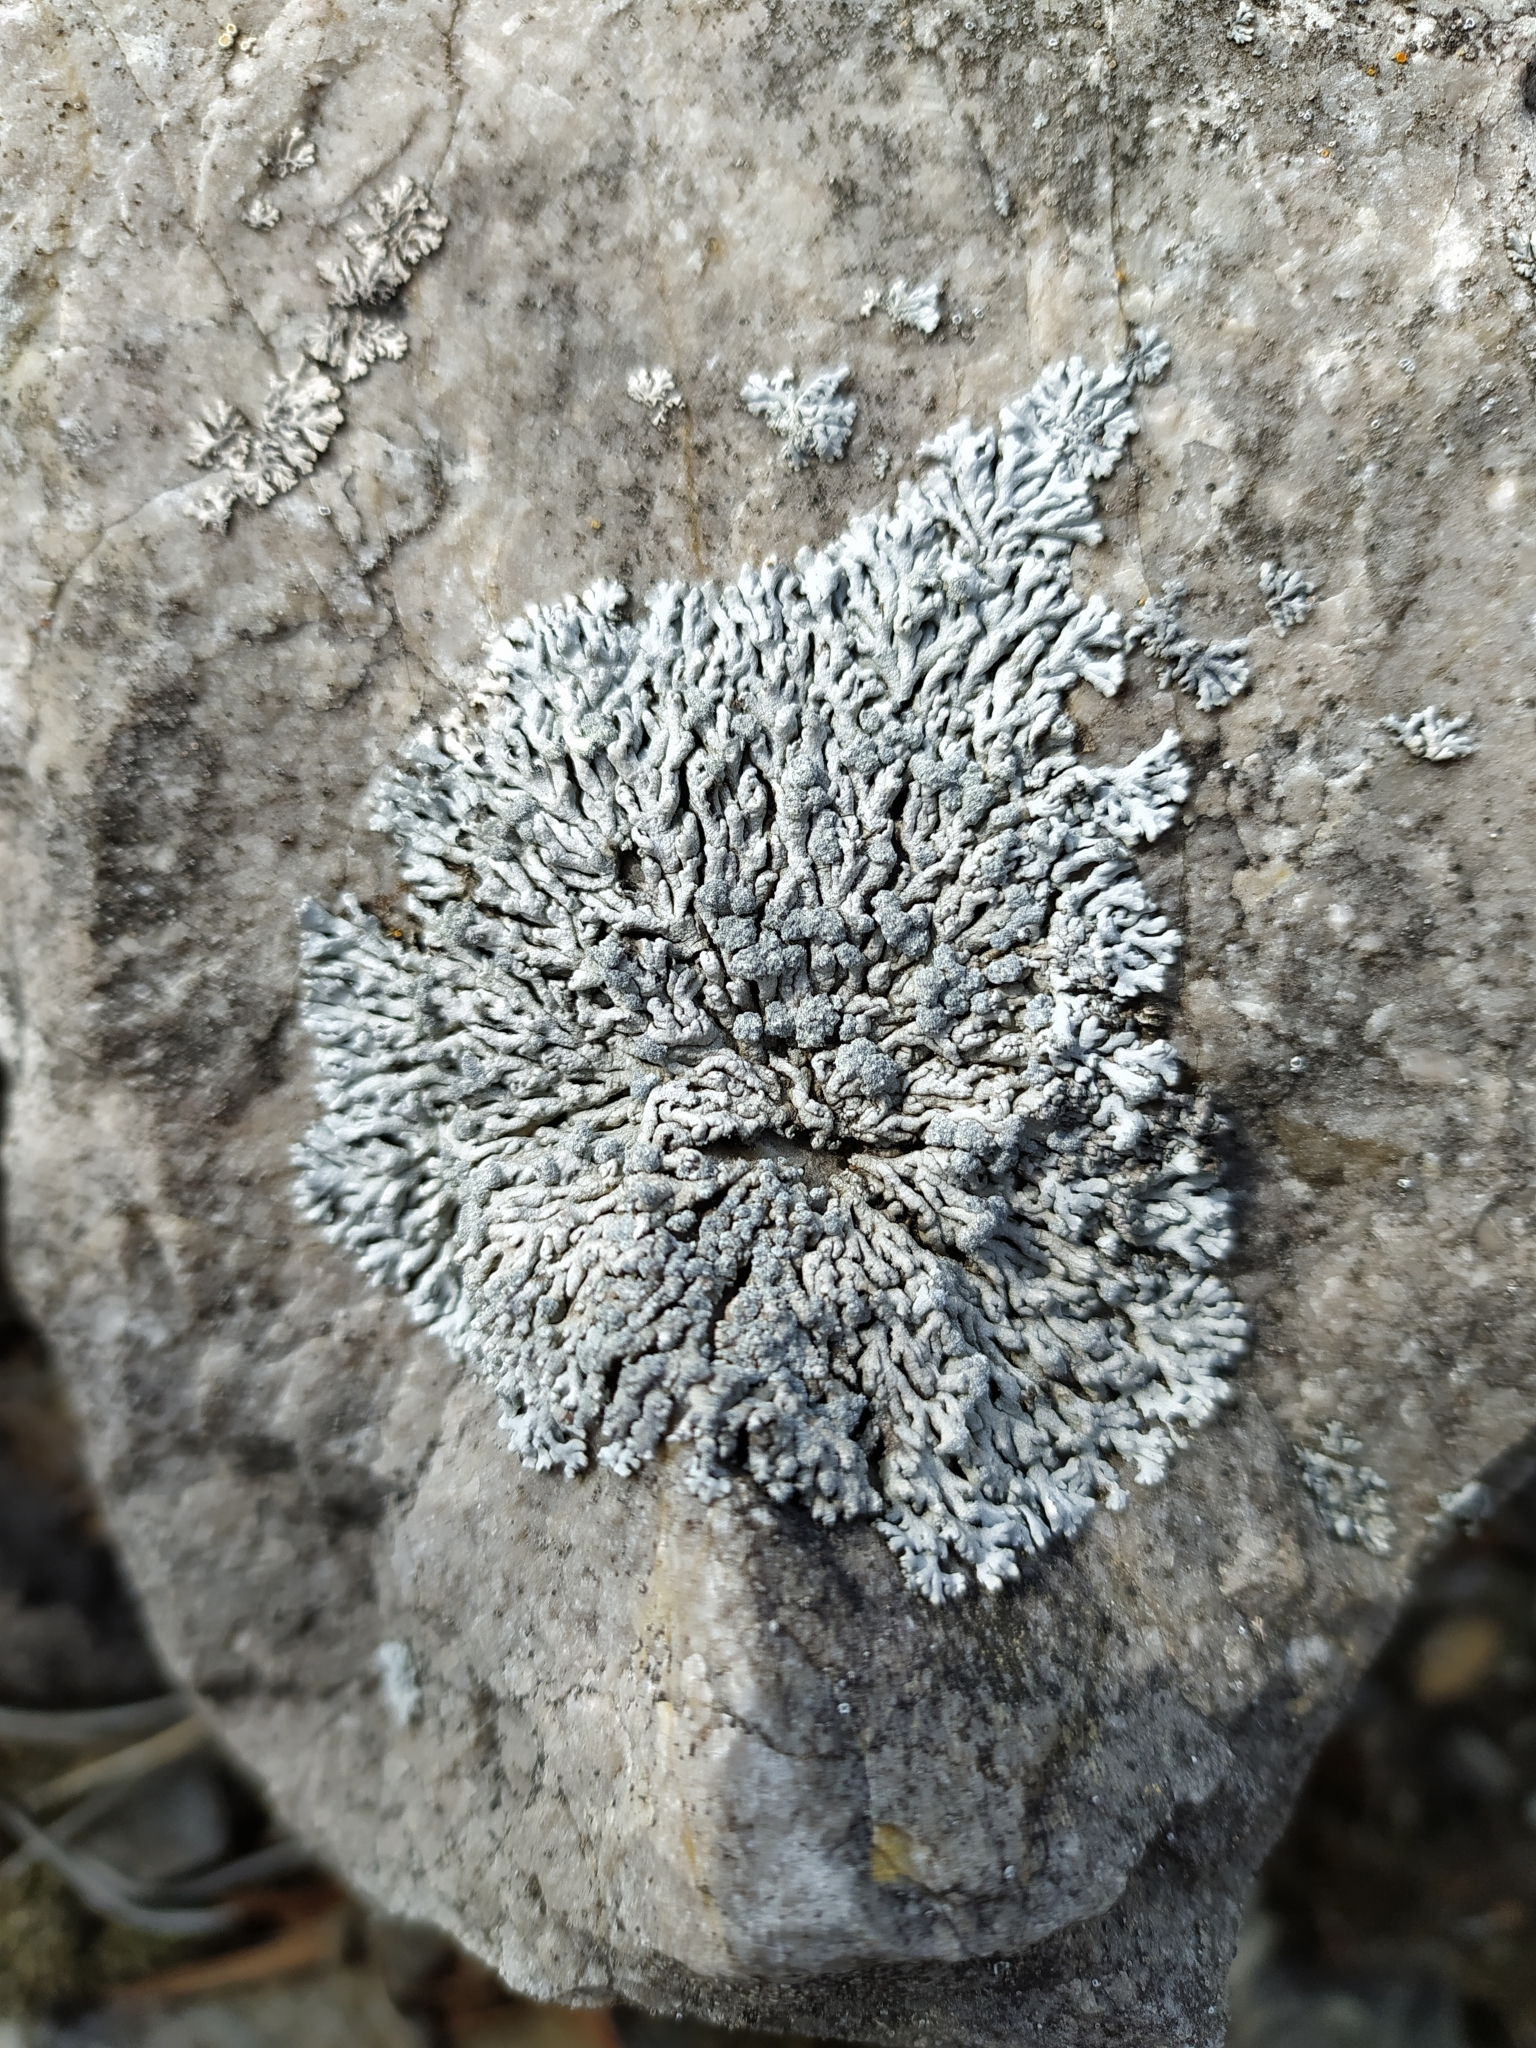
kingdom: Fungi
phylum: Ascomycota
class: Lecanoromycetes
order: Caliciales
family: Physciaceae
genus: Physcia
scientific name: Physcia caesia
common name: Blue-gray rosette lichen
